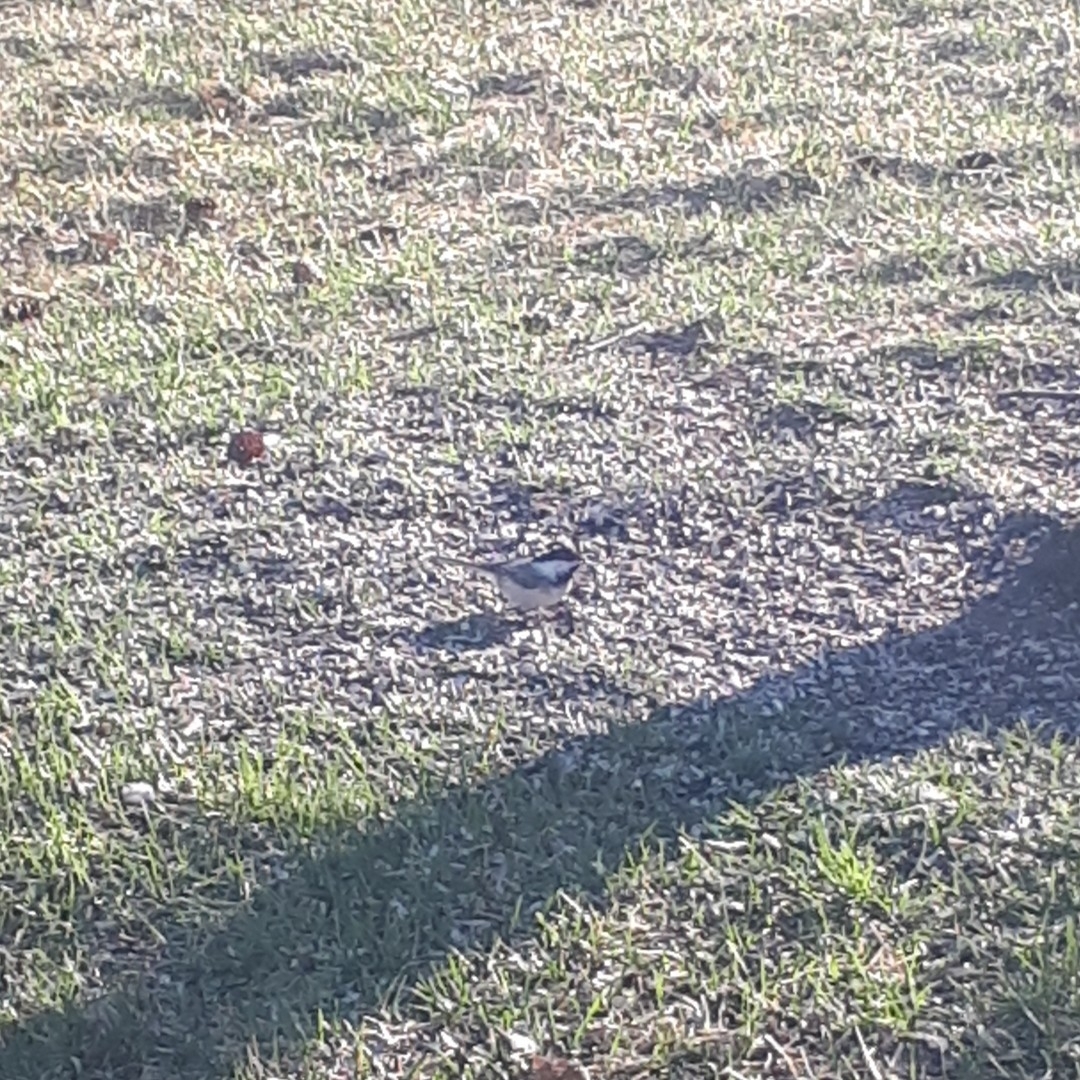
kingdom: Animalia
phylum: Chordata
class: Aves
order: Passeriformes
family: Paridae
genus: Poecile
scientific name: Poecile atricapillus
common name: Black-capped chickadee
